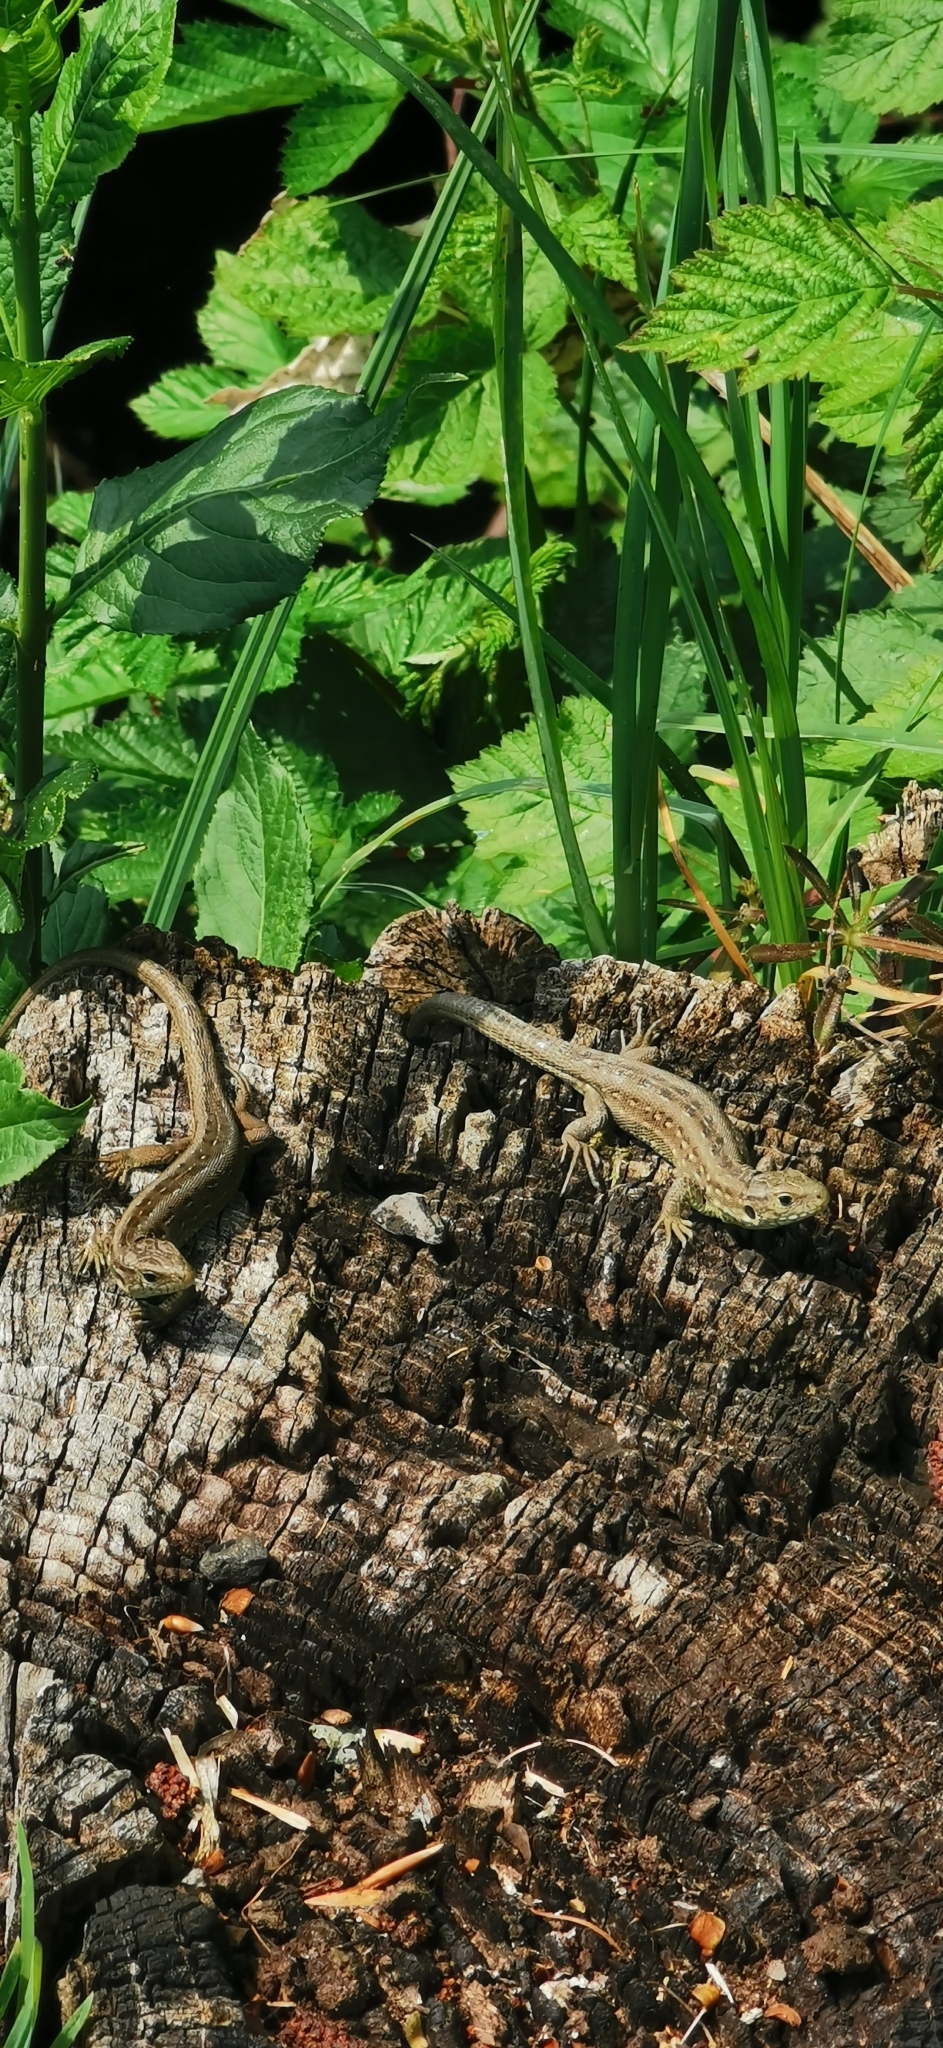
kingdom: Animalia
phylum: Chordata
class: Squamata
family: Lacertidae
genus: Lacerta
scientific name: Lacerta agilis
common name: Sand lizard
